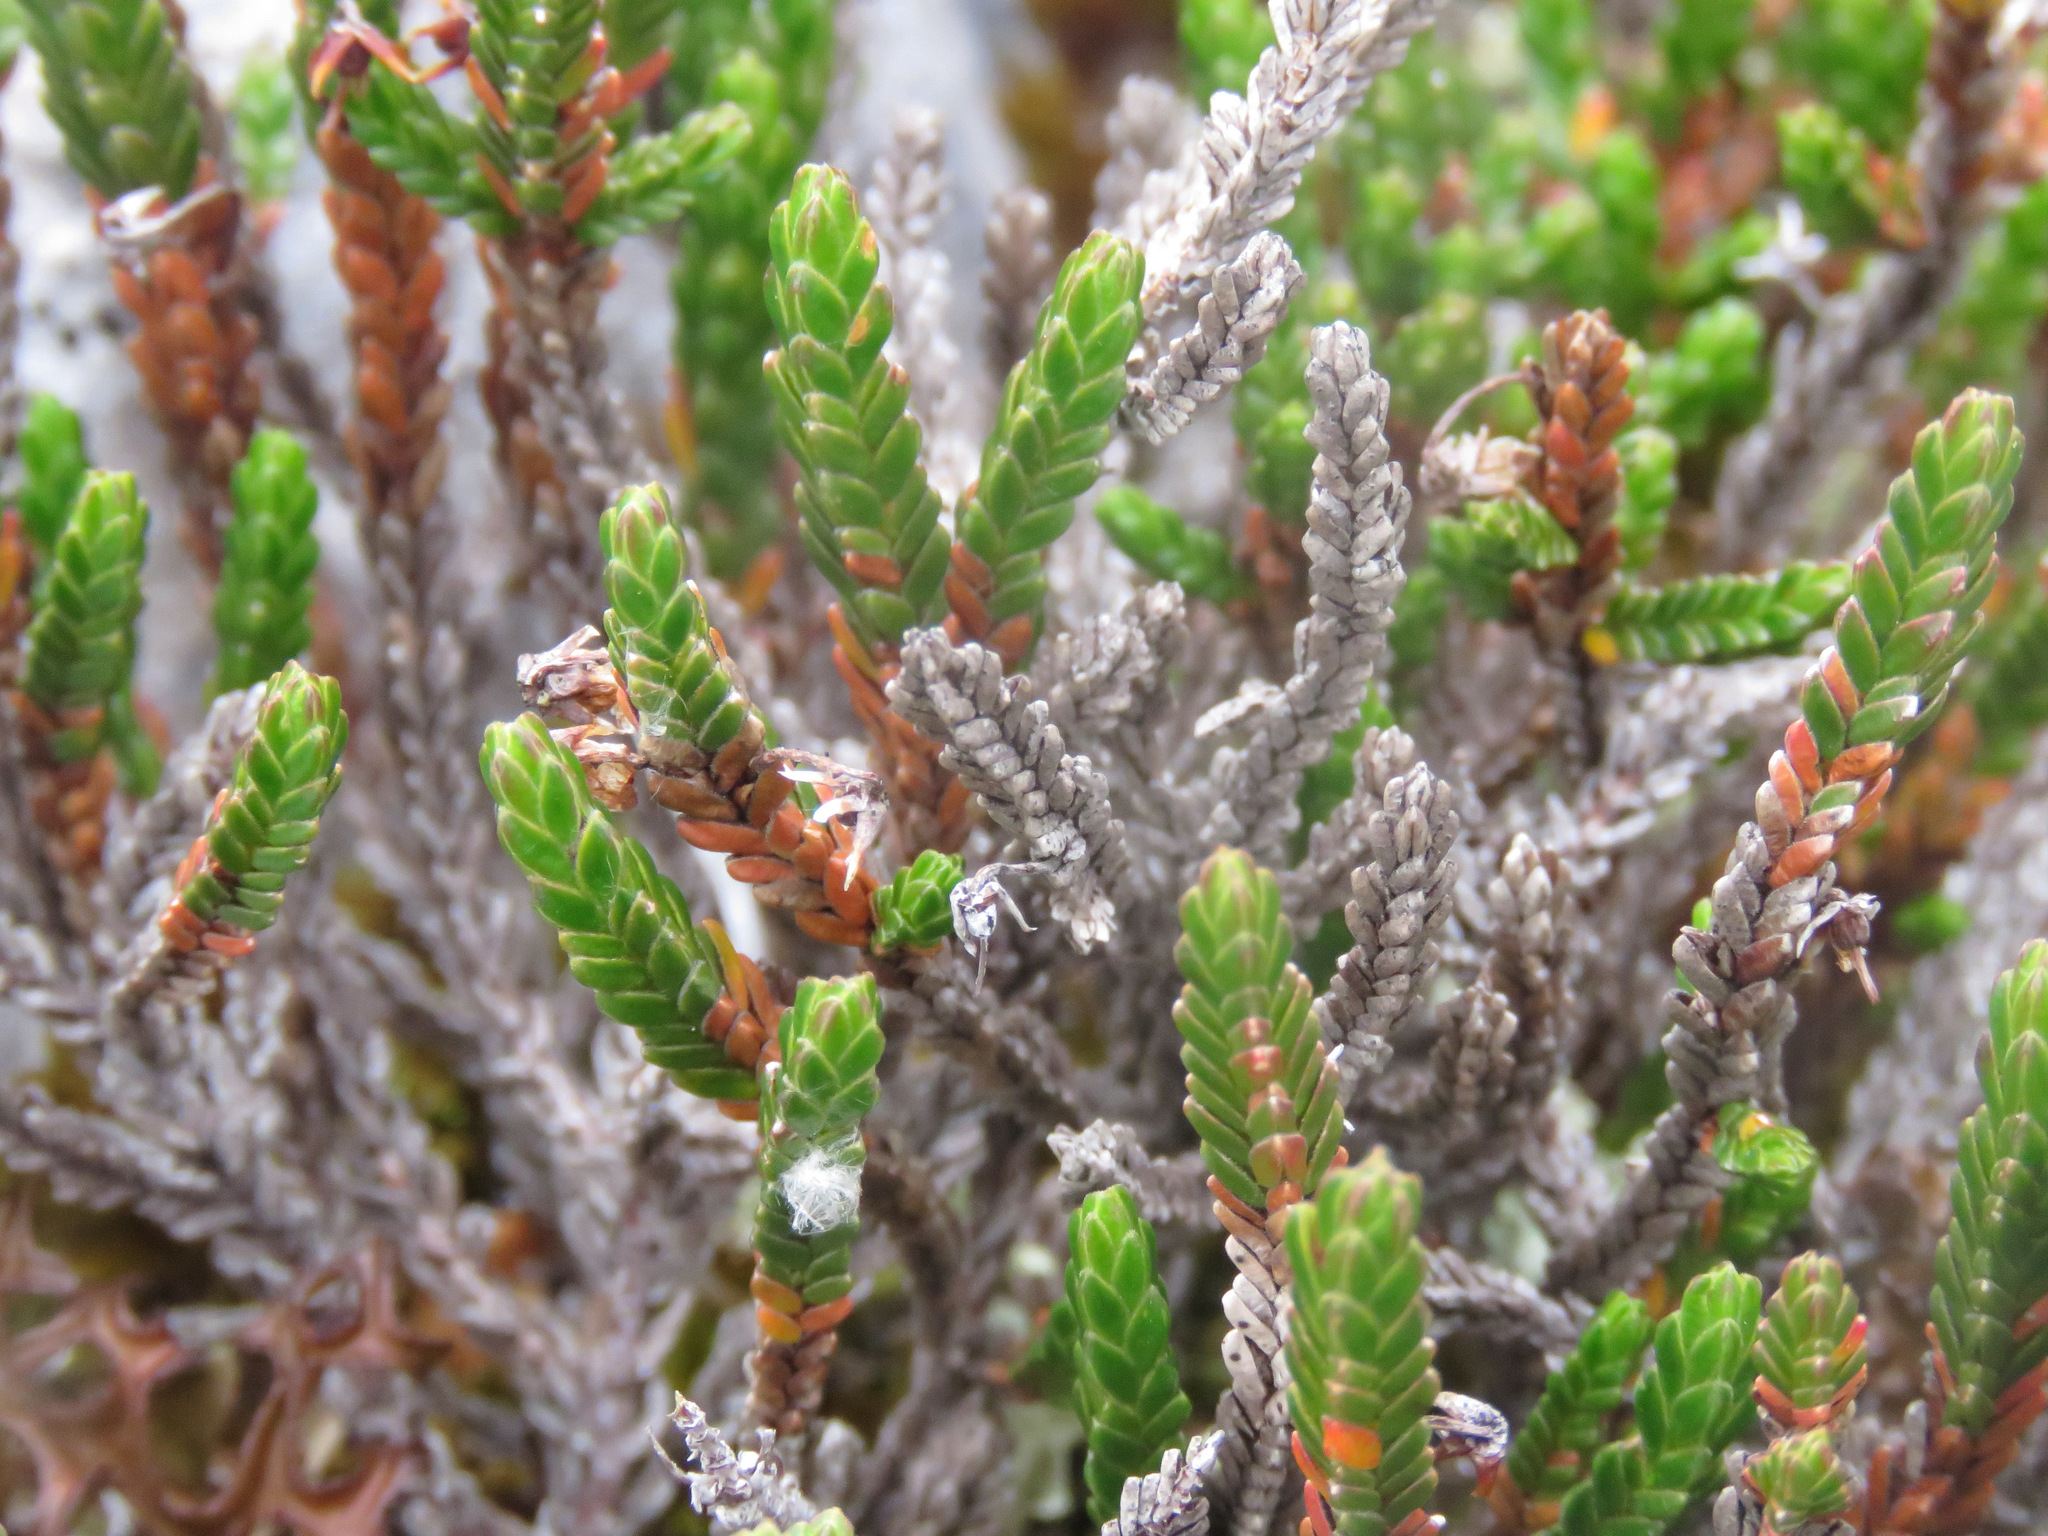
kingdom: Plantae
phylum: Tracheophyta
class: Magnoliopsida
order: Ericales
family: Ericaceae
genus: Cassiope
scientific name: Cassiope tetragona
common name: Arctic bell heather
